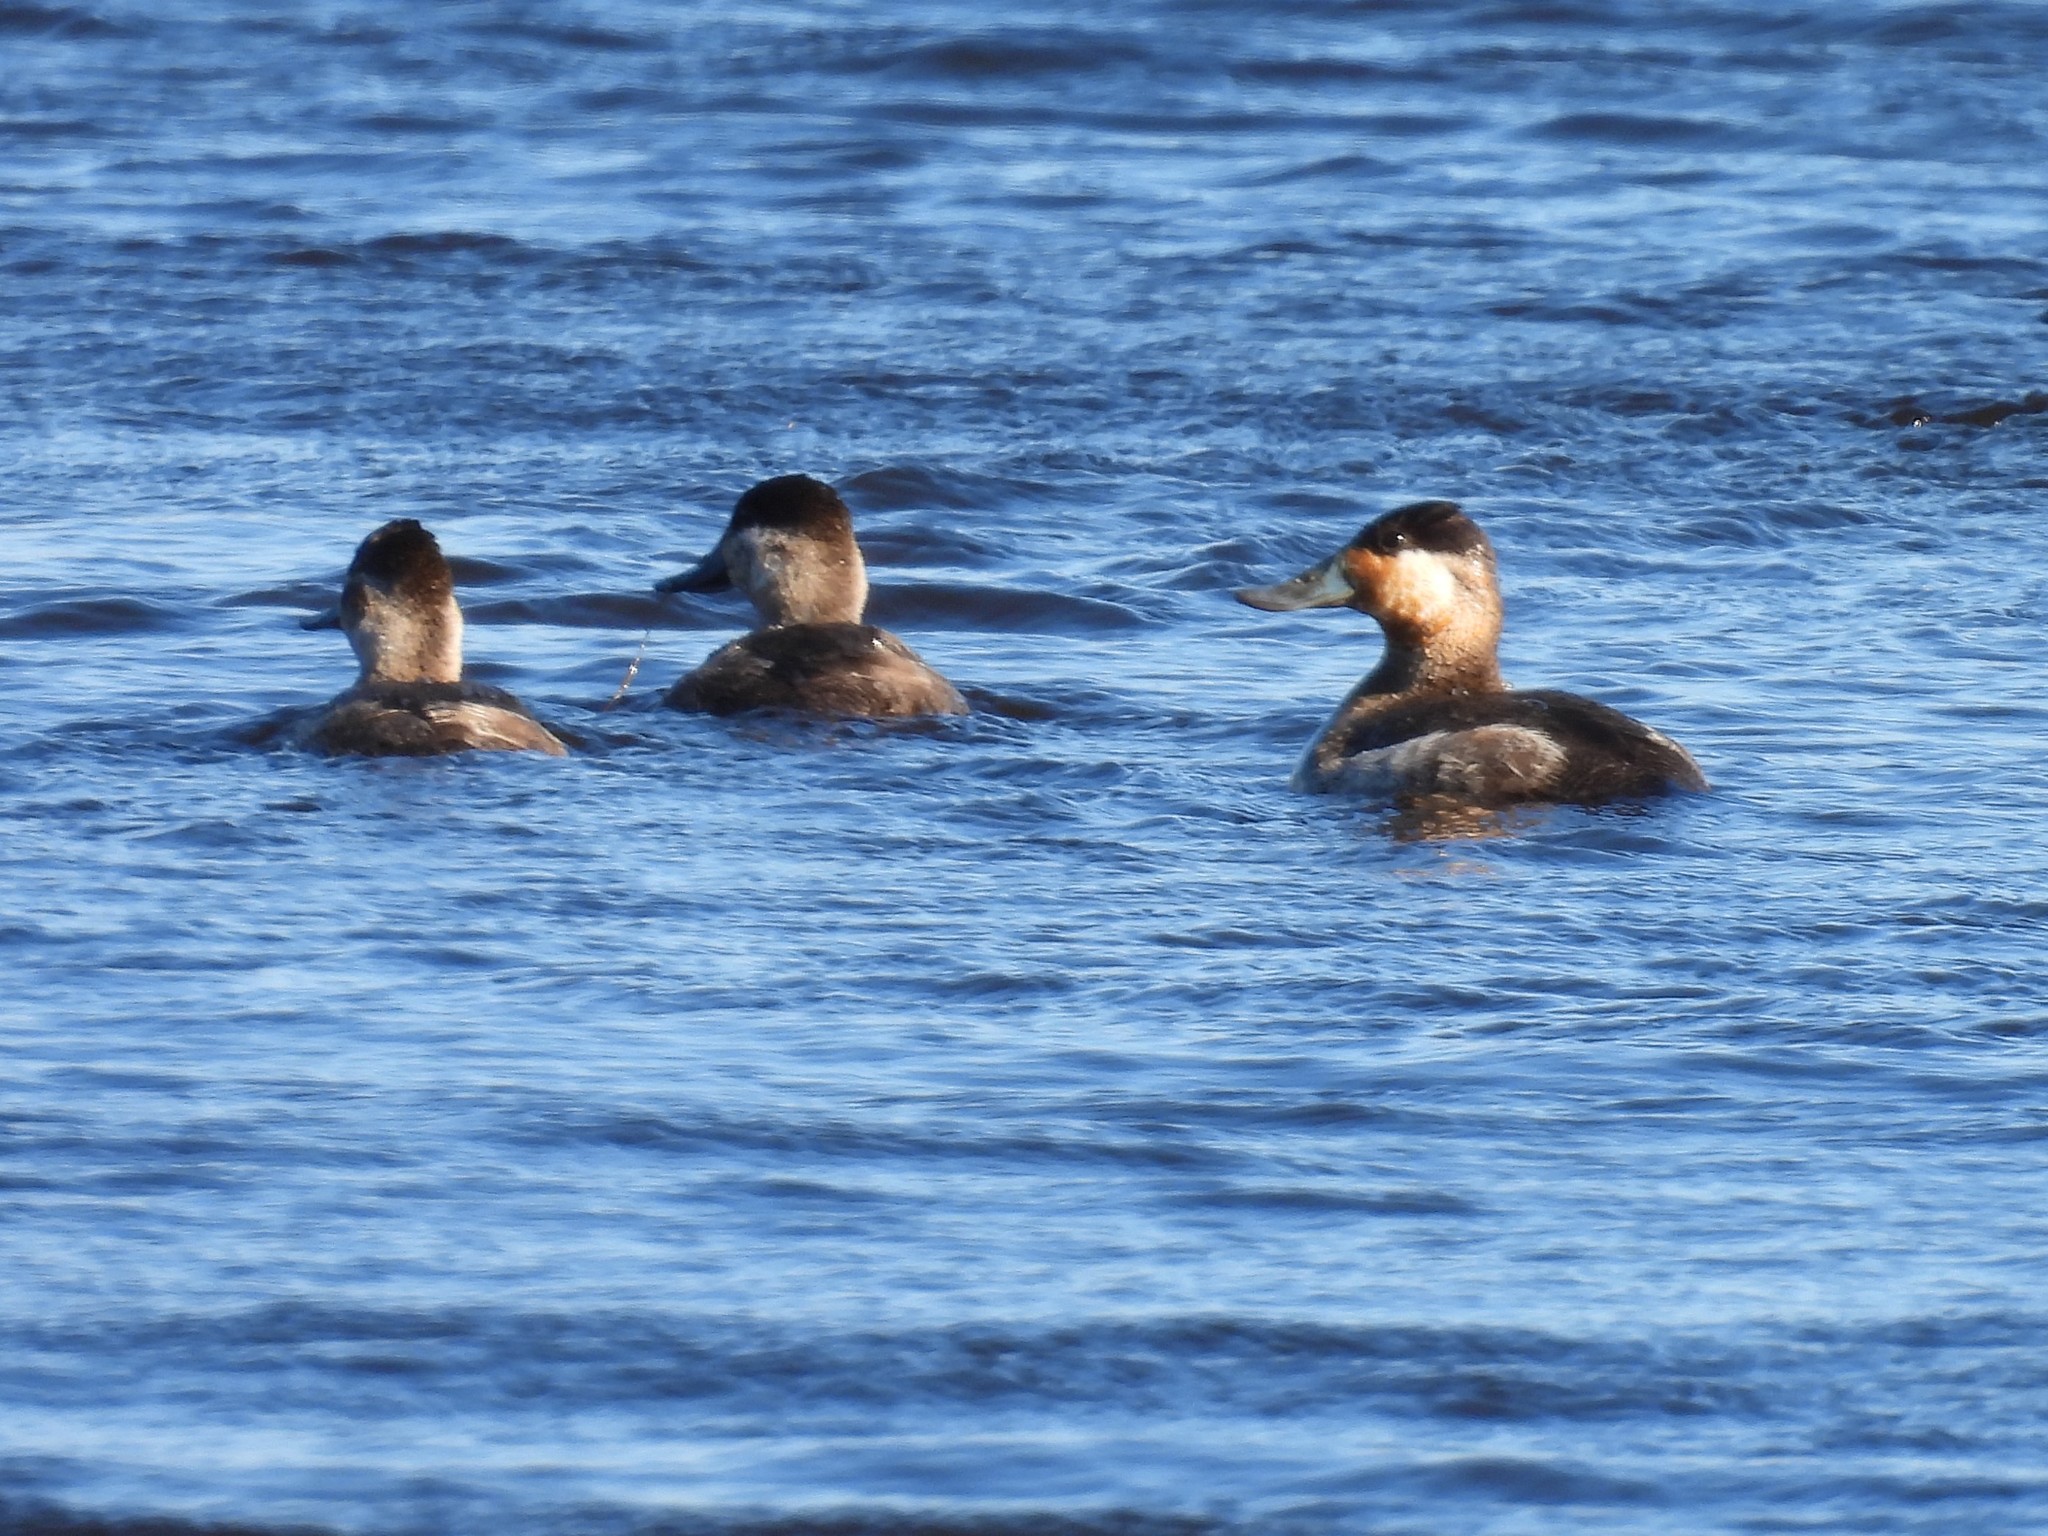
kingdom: Animalia
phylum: Chordata
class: Aves
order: Anseriformes
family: Anatidae
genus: Oxyura
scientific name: Oxyura jamaicensis
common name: Ruddy duck
